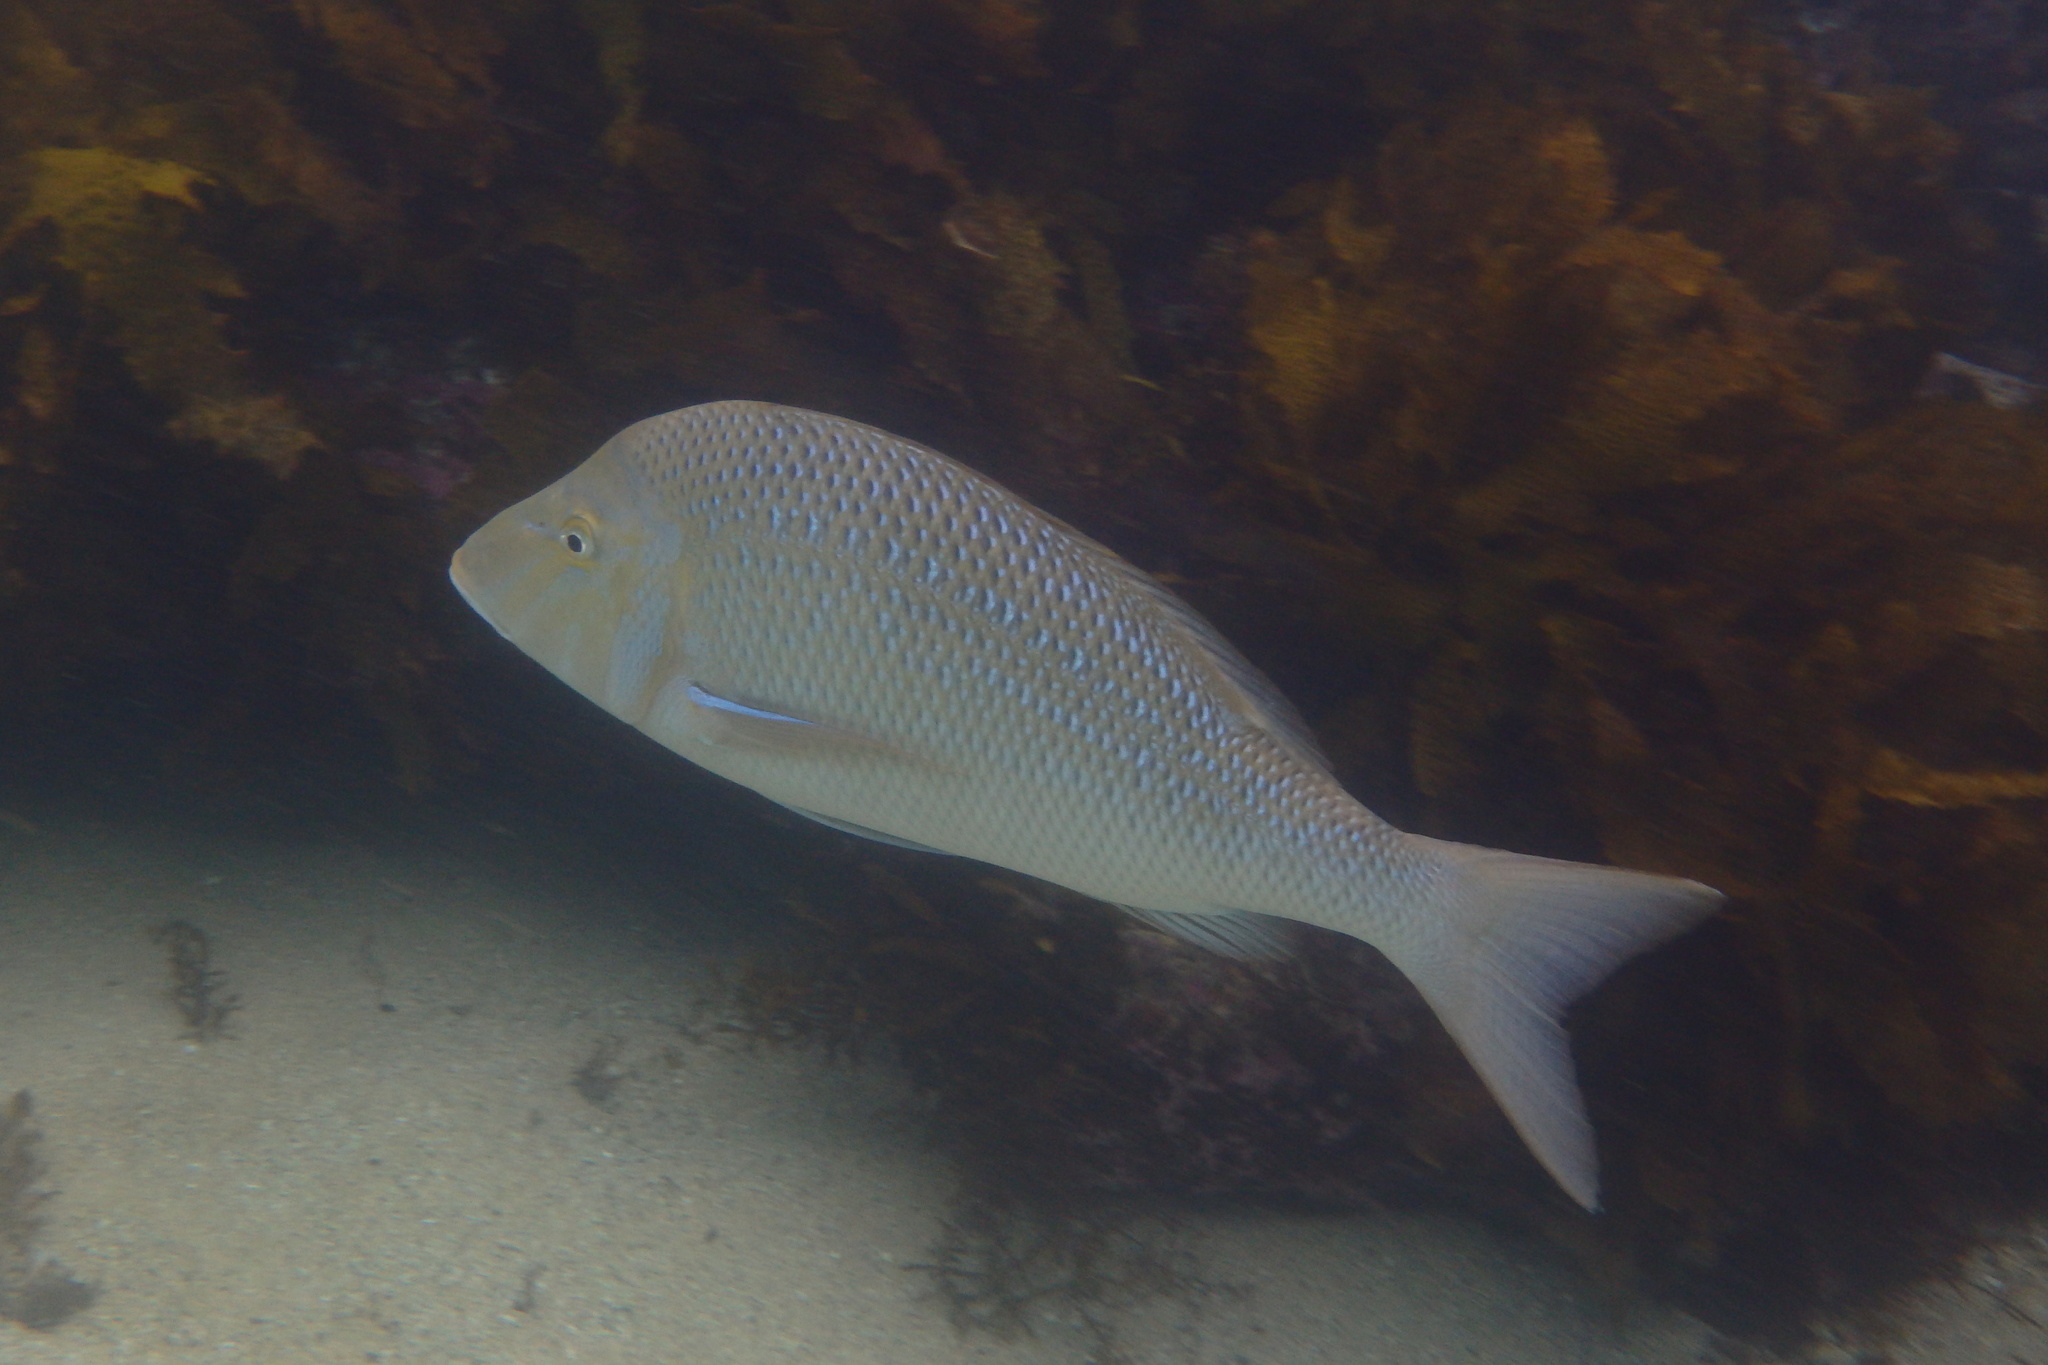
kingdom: Animalia
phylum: Chordata
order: Perciformes
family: Lethrinidae
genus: Lethrinus
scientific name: Lethrinus nebulosus
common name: Spangled emperor
